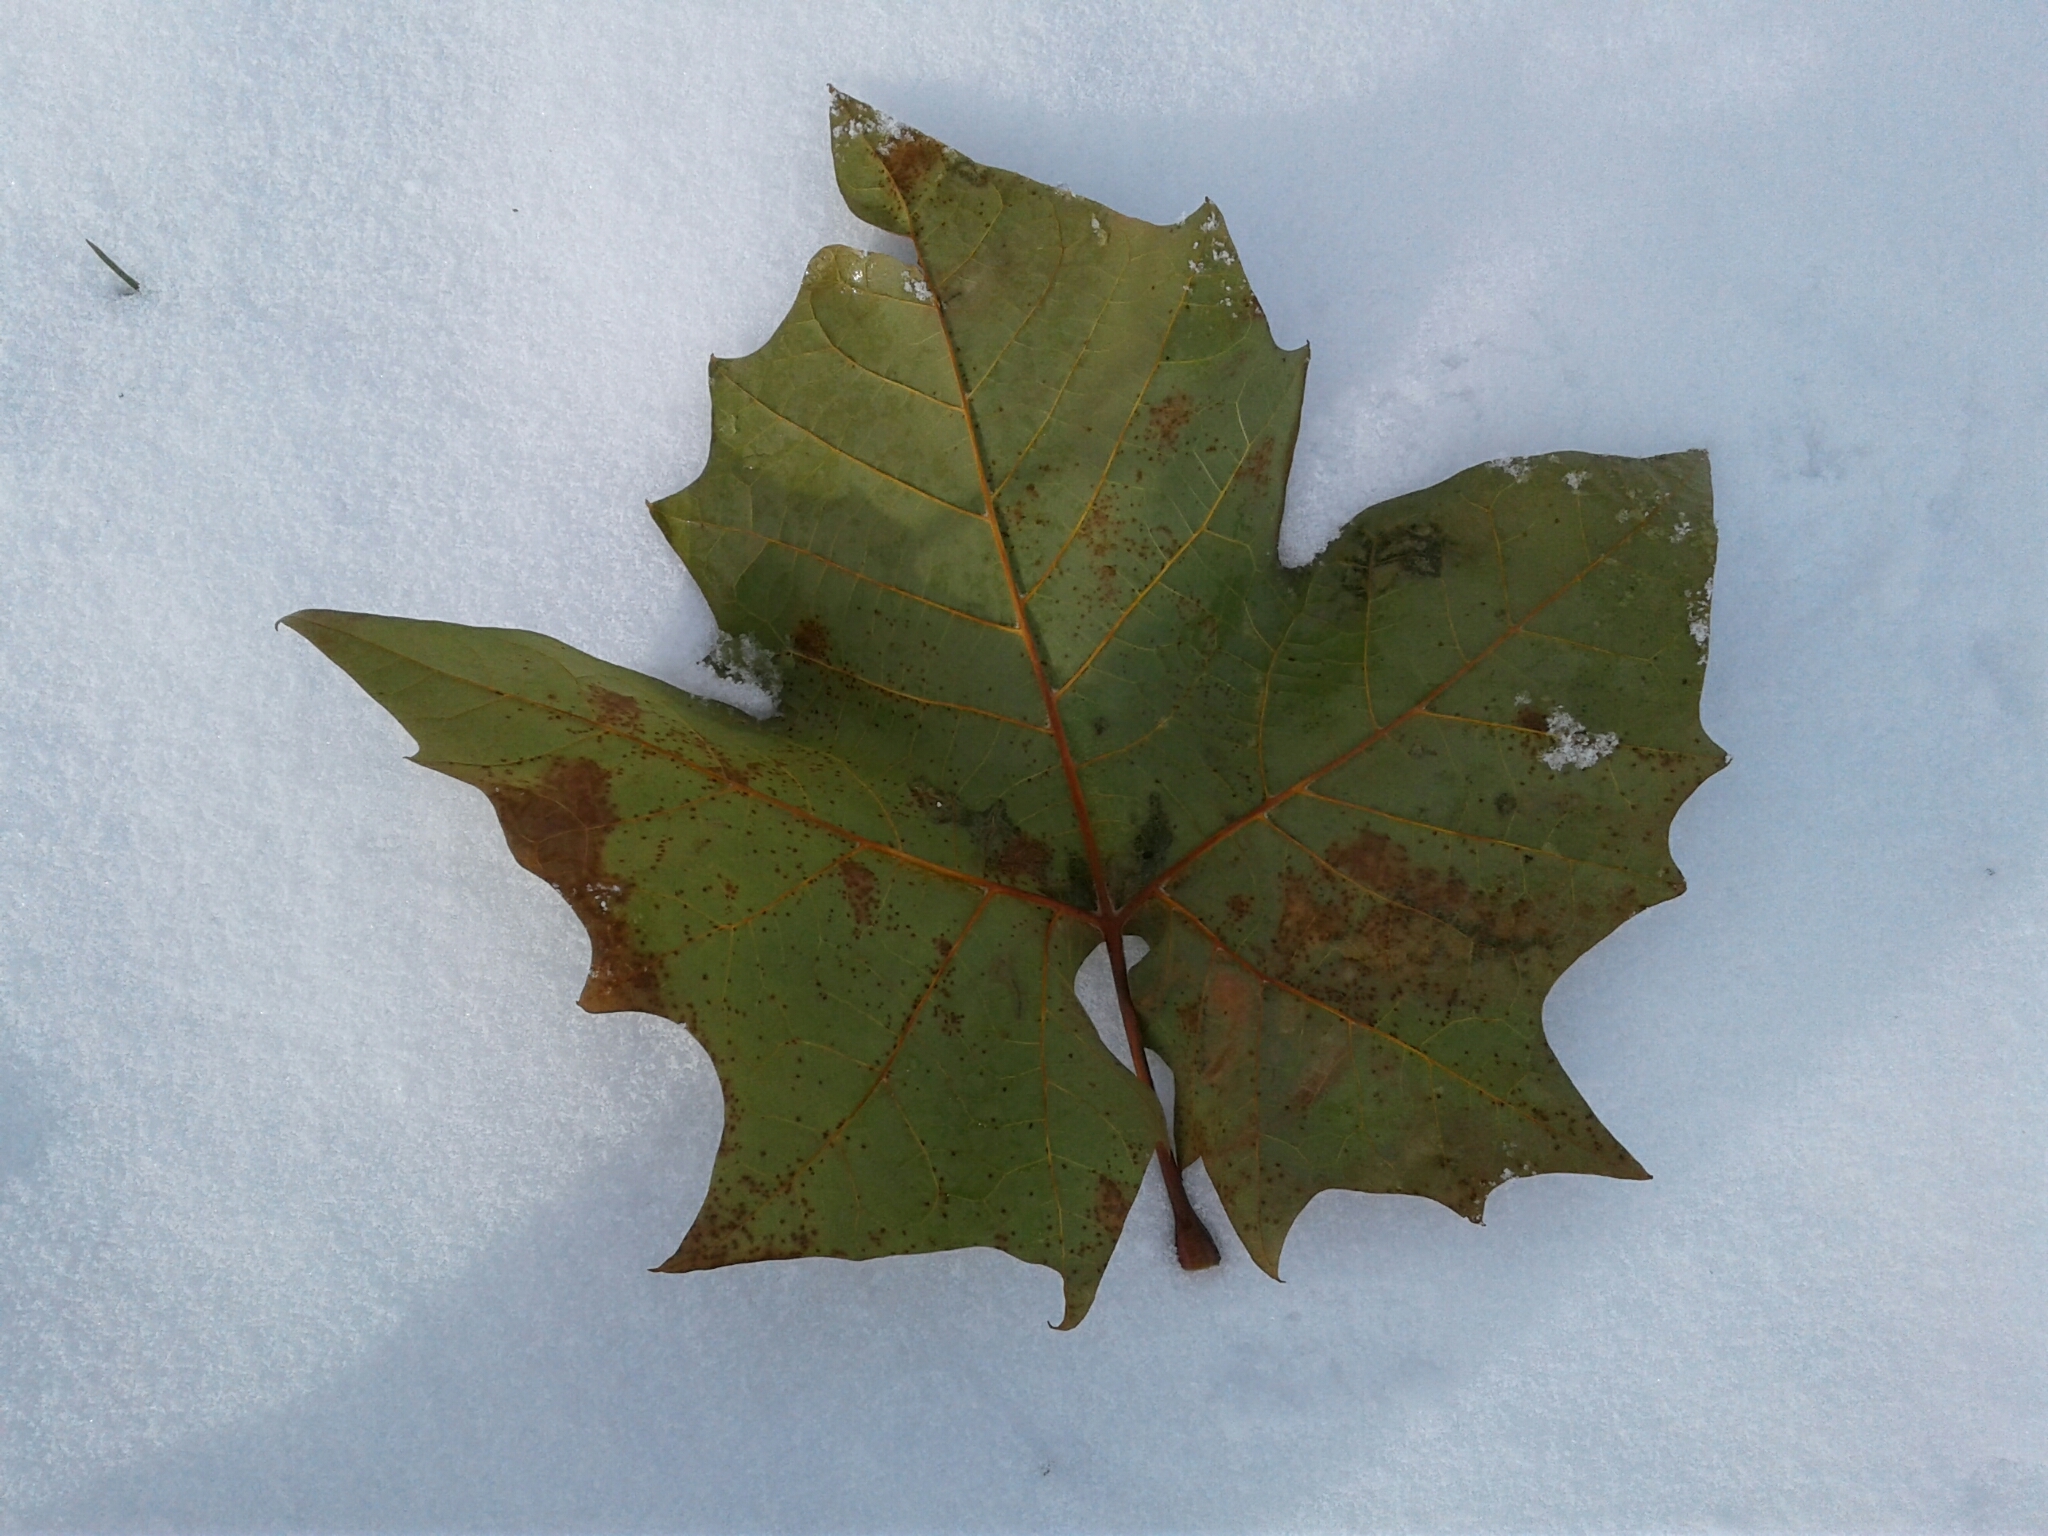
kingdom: Plantae
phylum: Tracheophyta
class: Magnoliopsida
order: Proteales
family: Platanaceae
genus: Platanus
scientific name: Platanus occidentalis
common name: American sycamore
